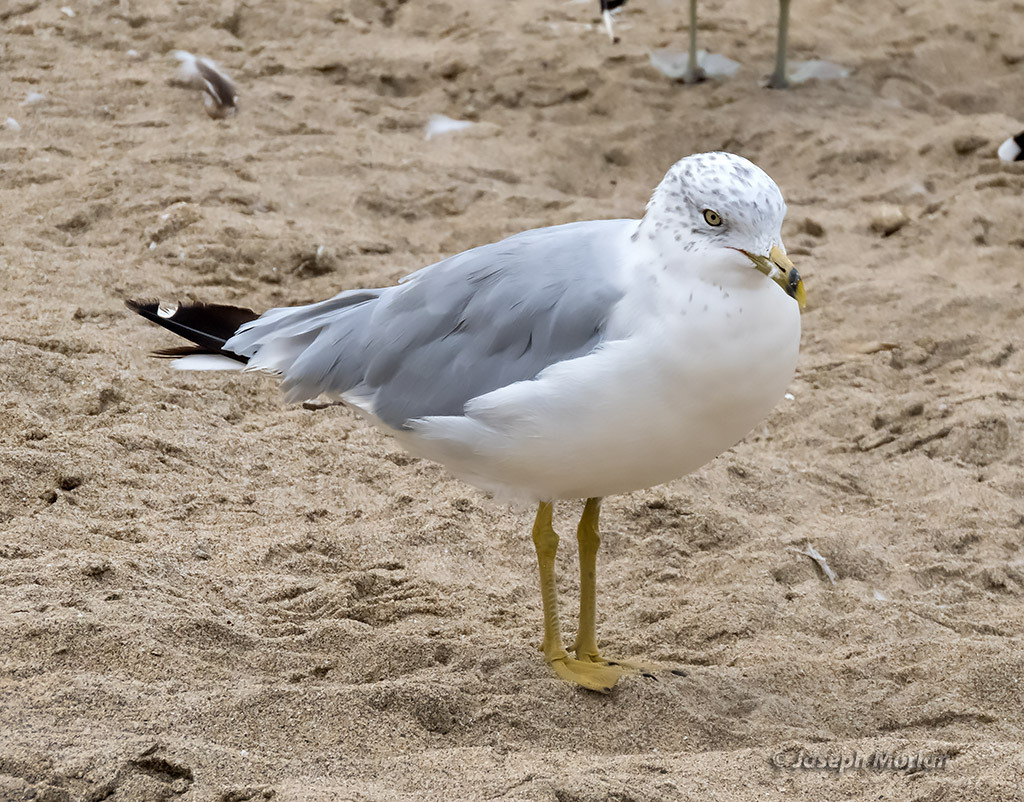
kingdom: Animalia
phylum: Chordata
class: Aves
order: Charadriiformes
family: Laridae
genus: Larus
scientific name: Larus delawarensis
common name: Ring-billed gull
